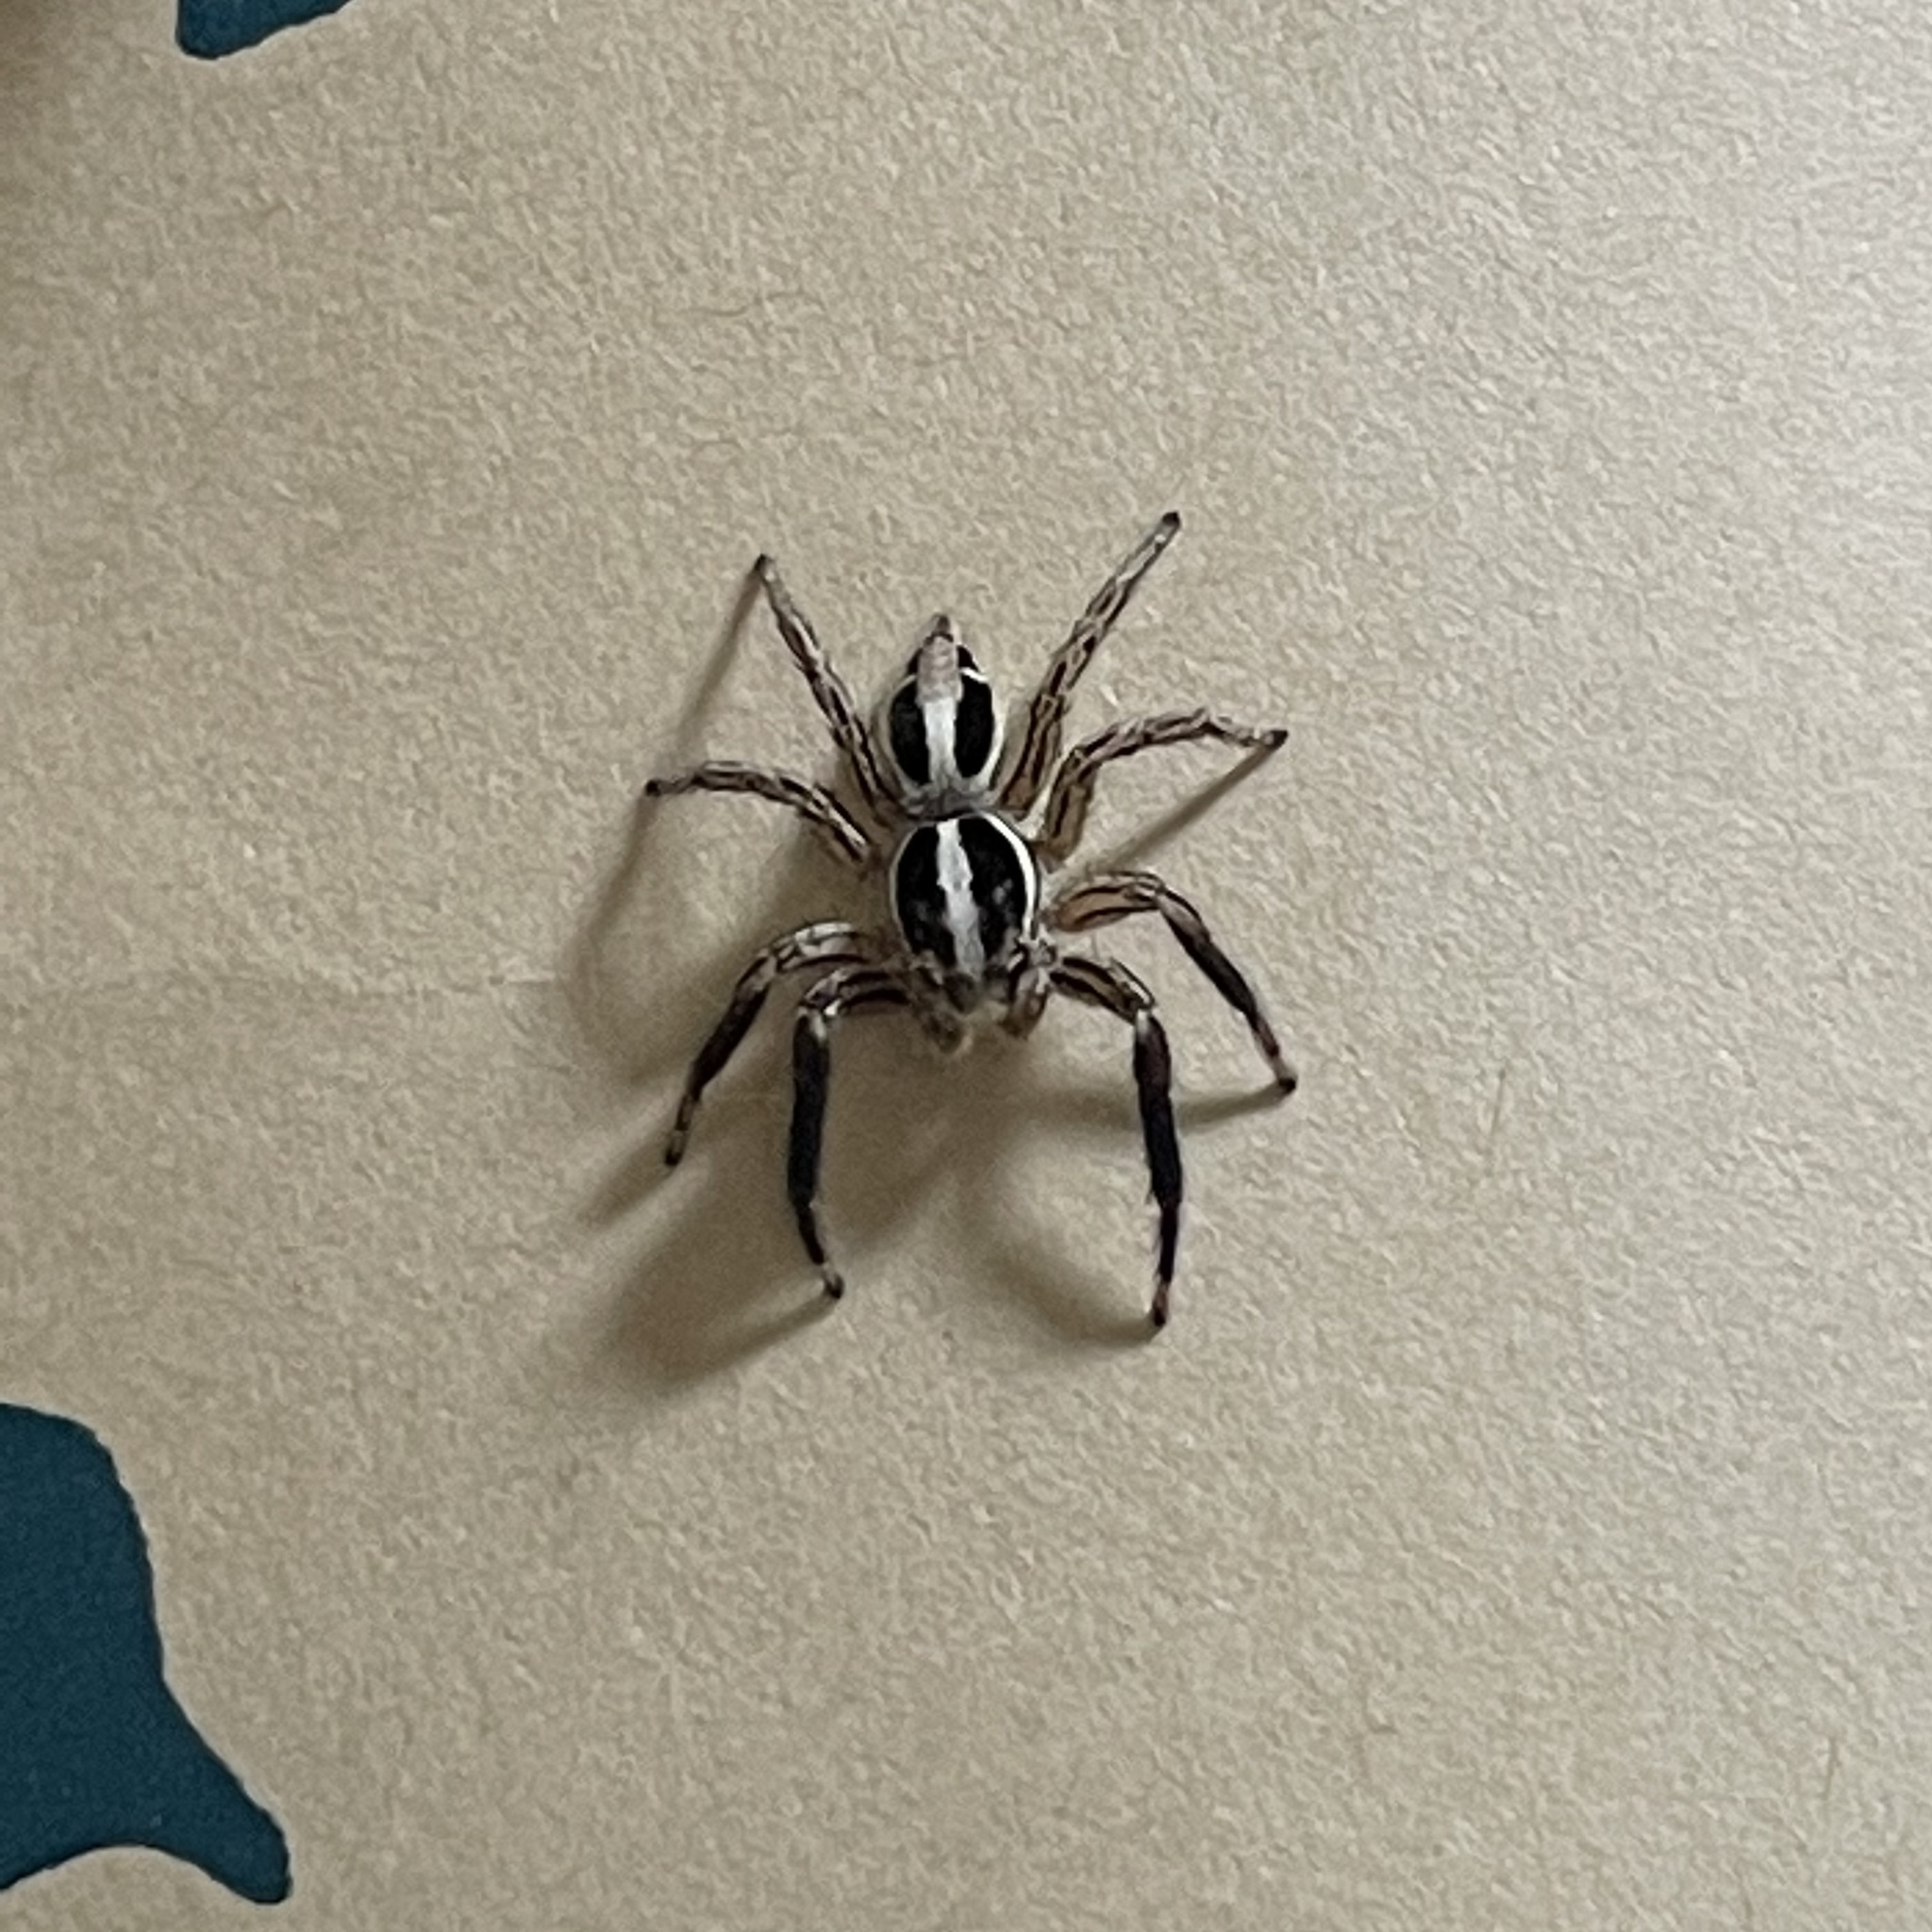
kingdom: Animalia
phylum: Arthropoda
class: Arachnida
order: Araneae
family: Salticidae
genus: Plexippus
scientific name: Plexippus paykulli
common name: Pantropical jumper
